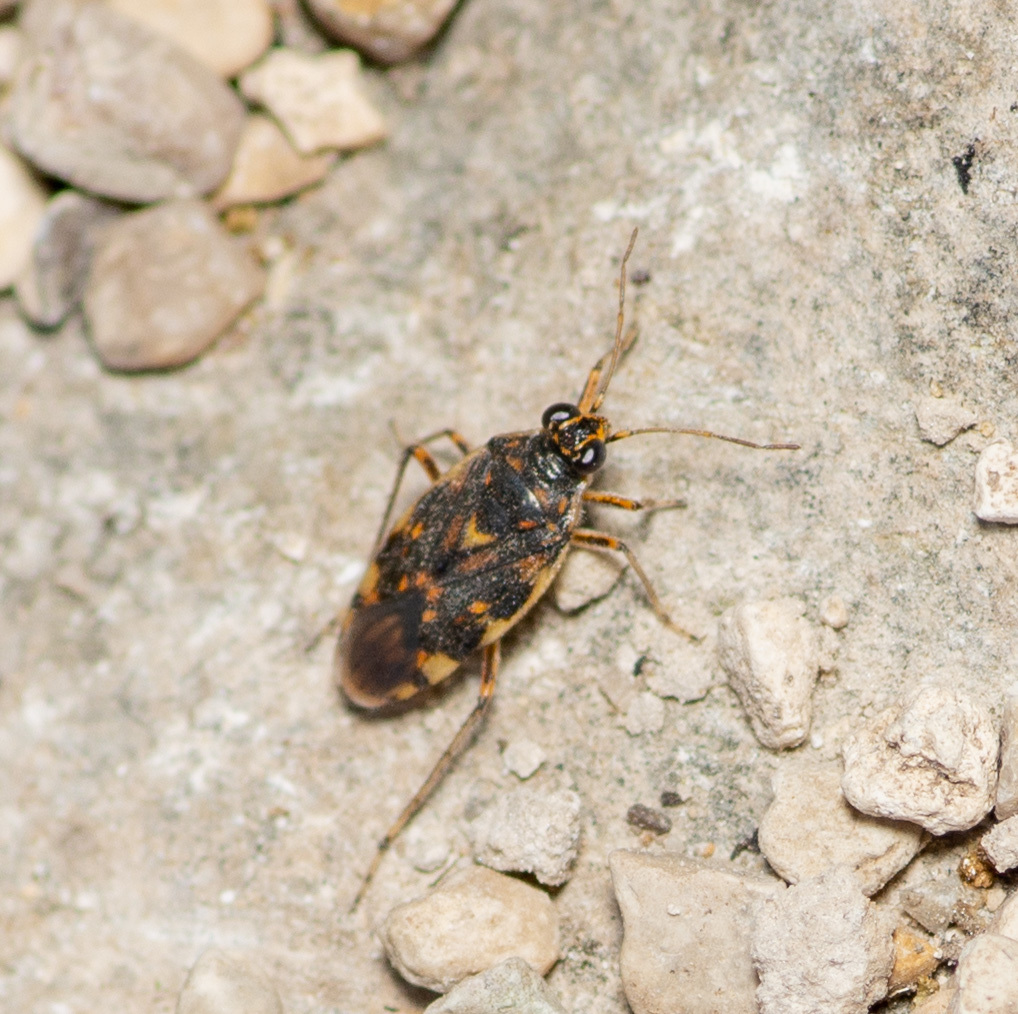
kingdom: Animalia
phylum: Arthropoda
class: Insecta
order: Hemiptera
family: Saldidae
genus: Pentacora
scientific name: Pentacora ligata
